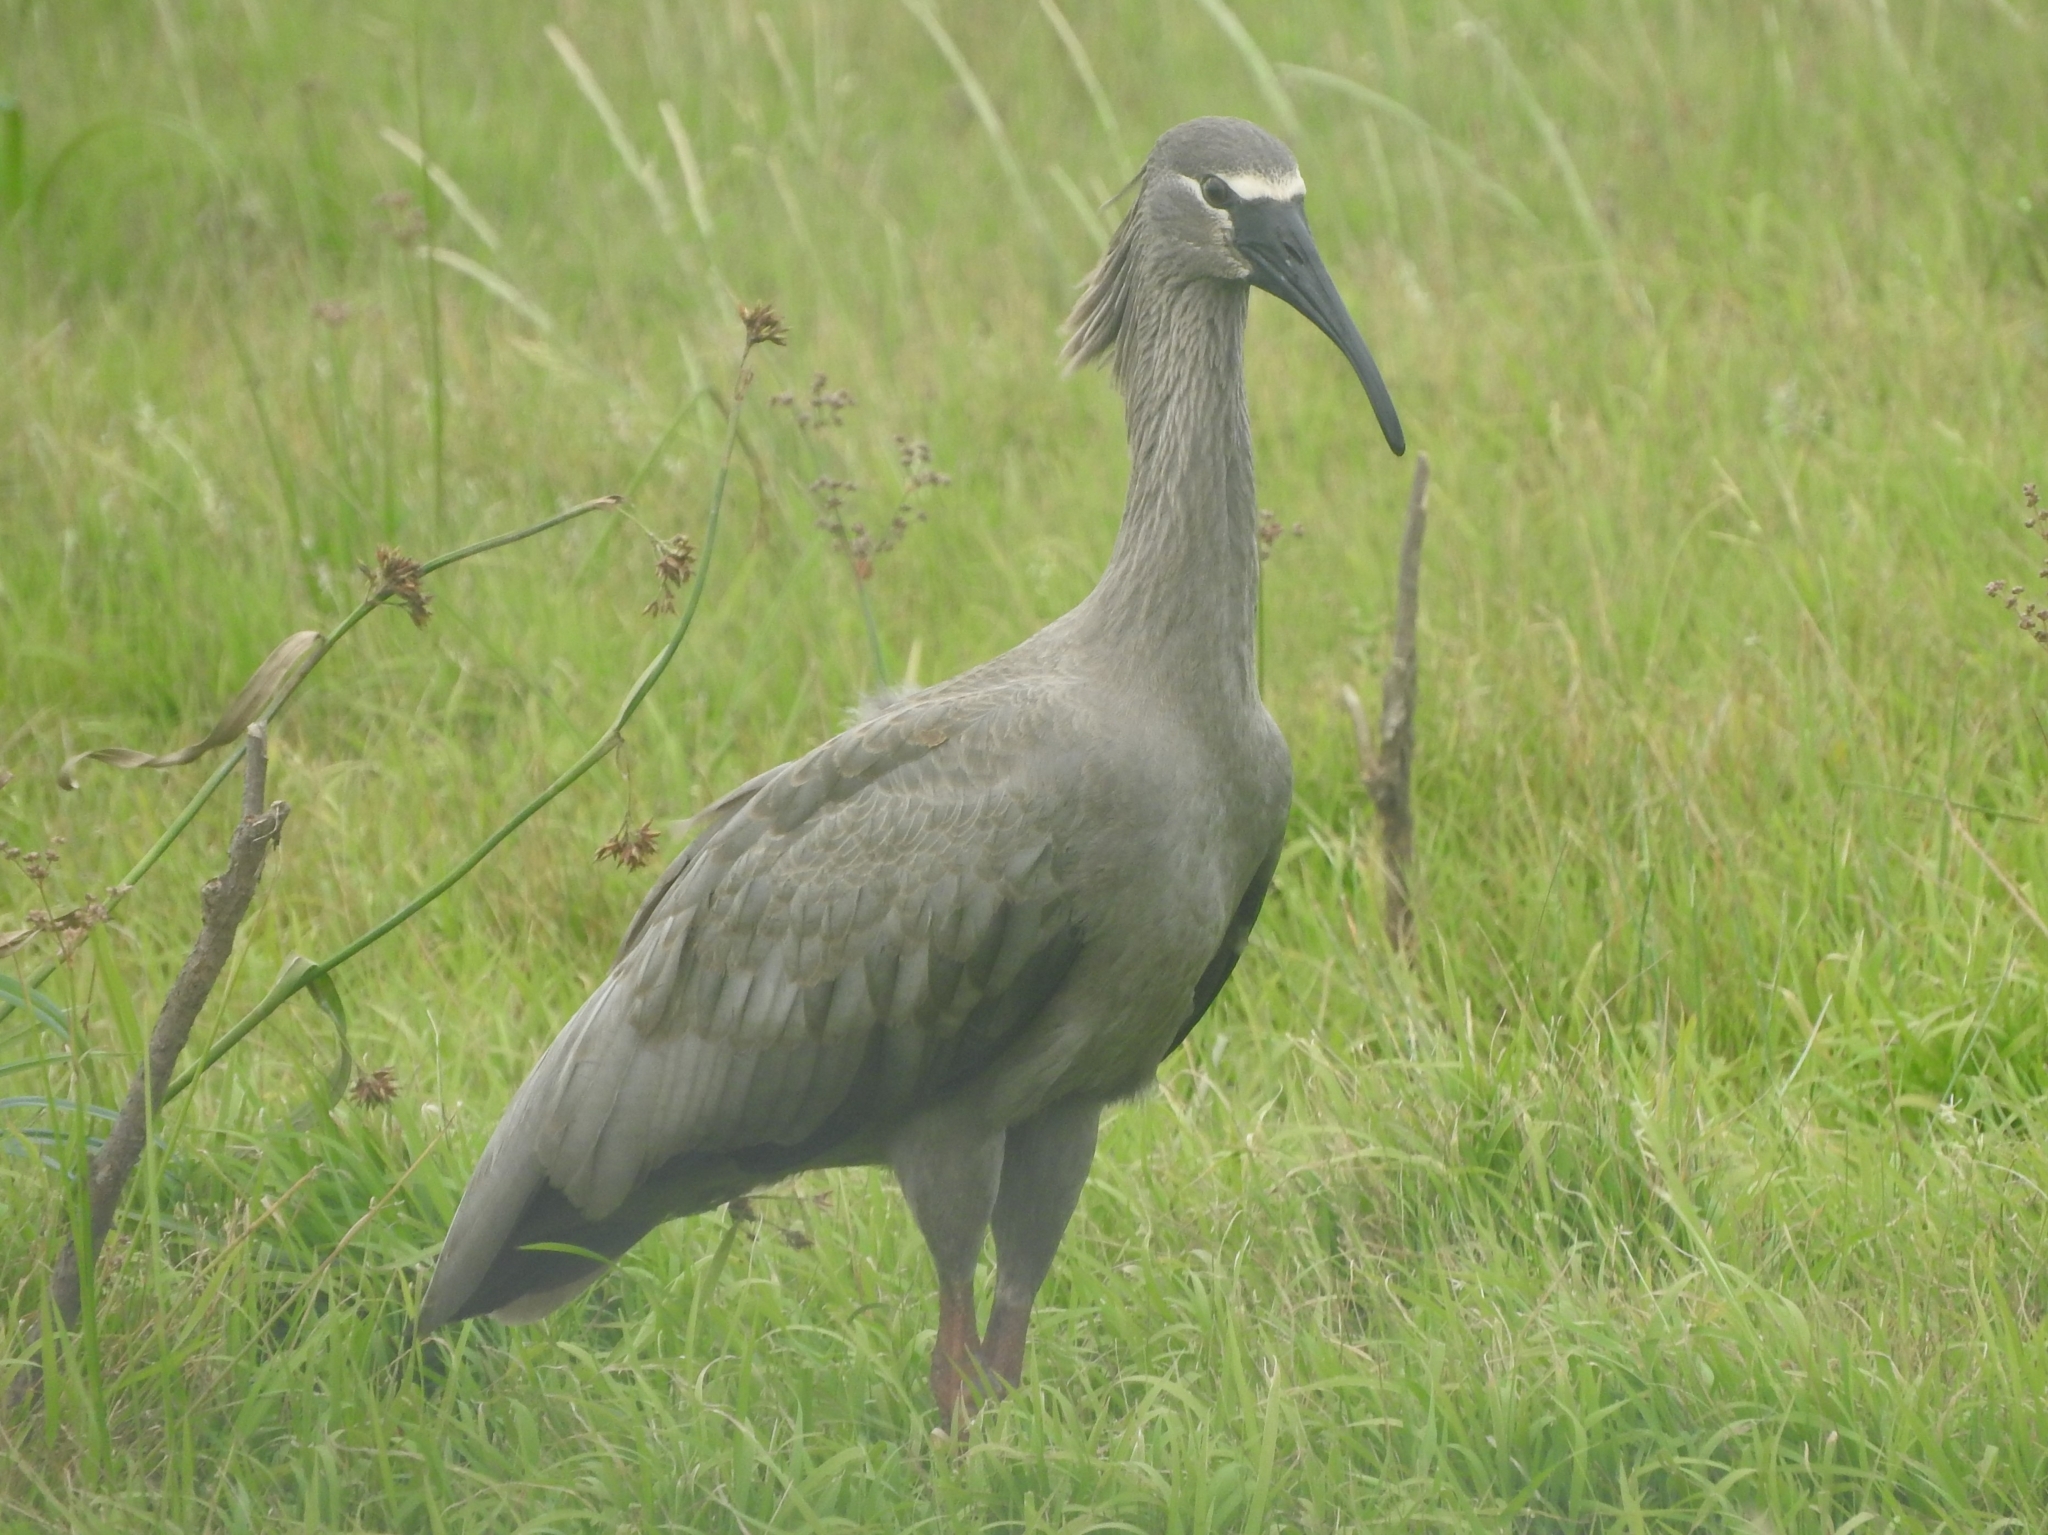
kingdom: Animalia
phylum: Chordata
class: Aves
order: Pelecaniformes
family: Threskiornithidae
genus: Theristicus
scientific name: Theristicus caerulescens
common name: Plumbeous ibis
